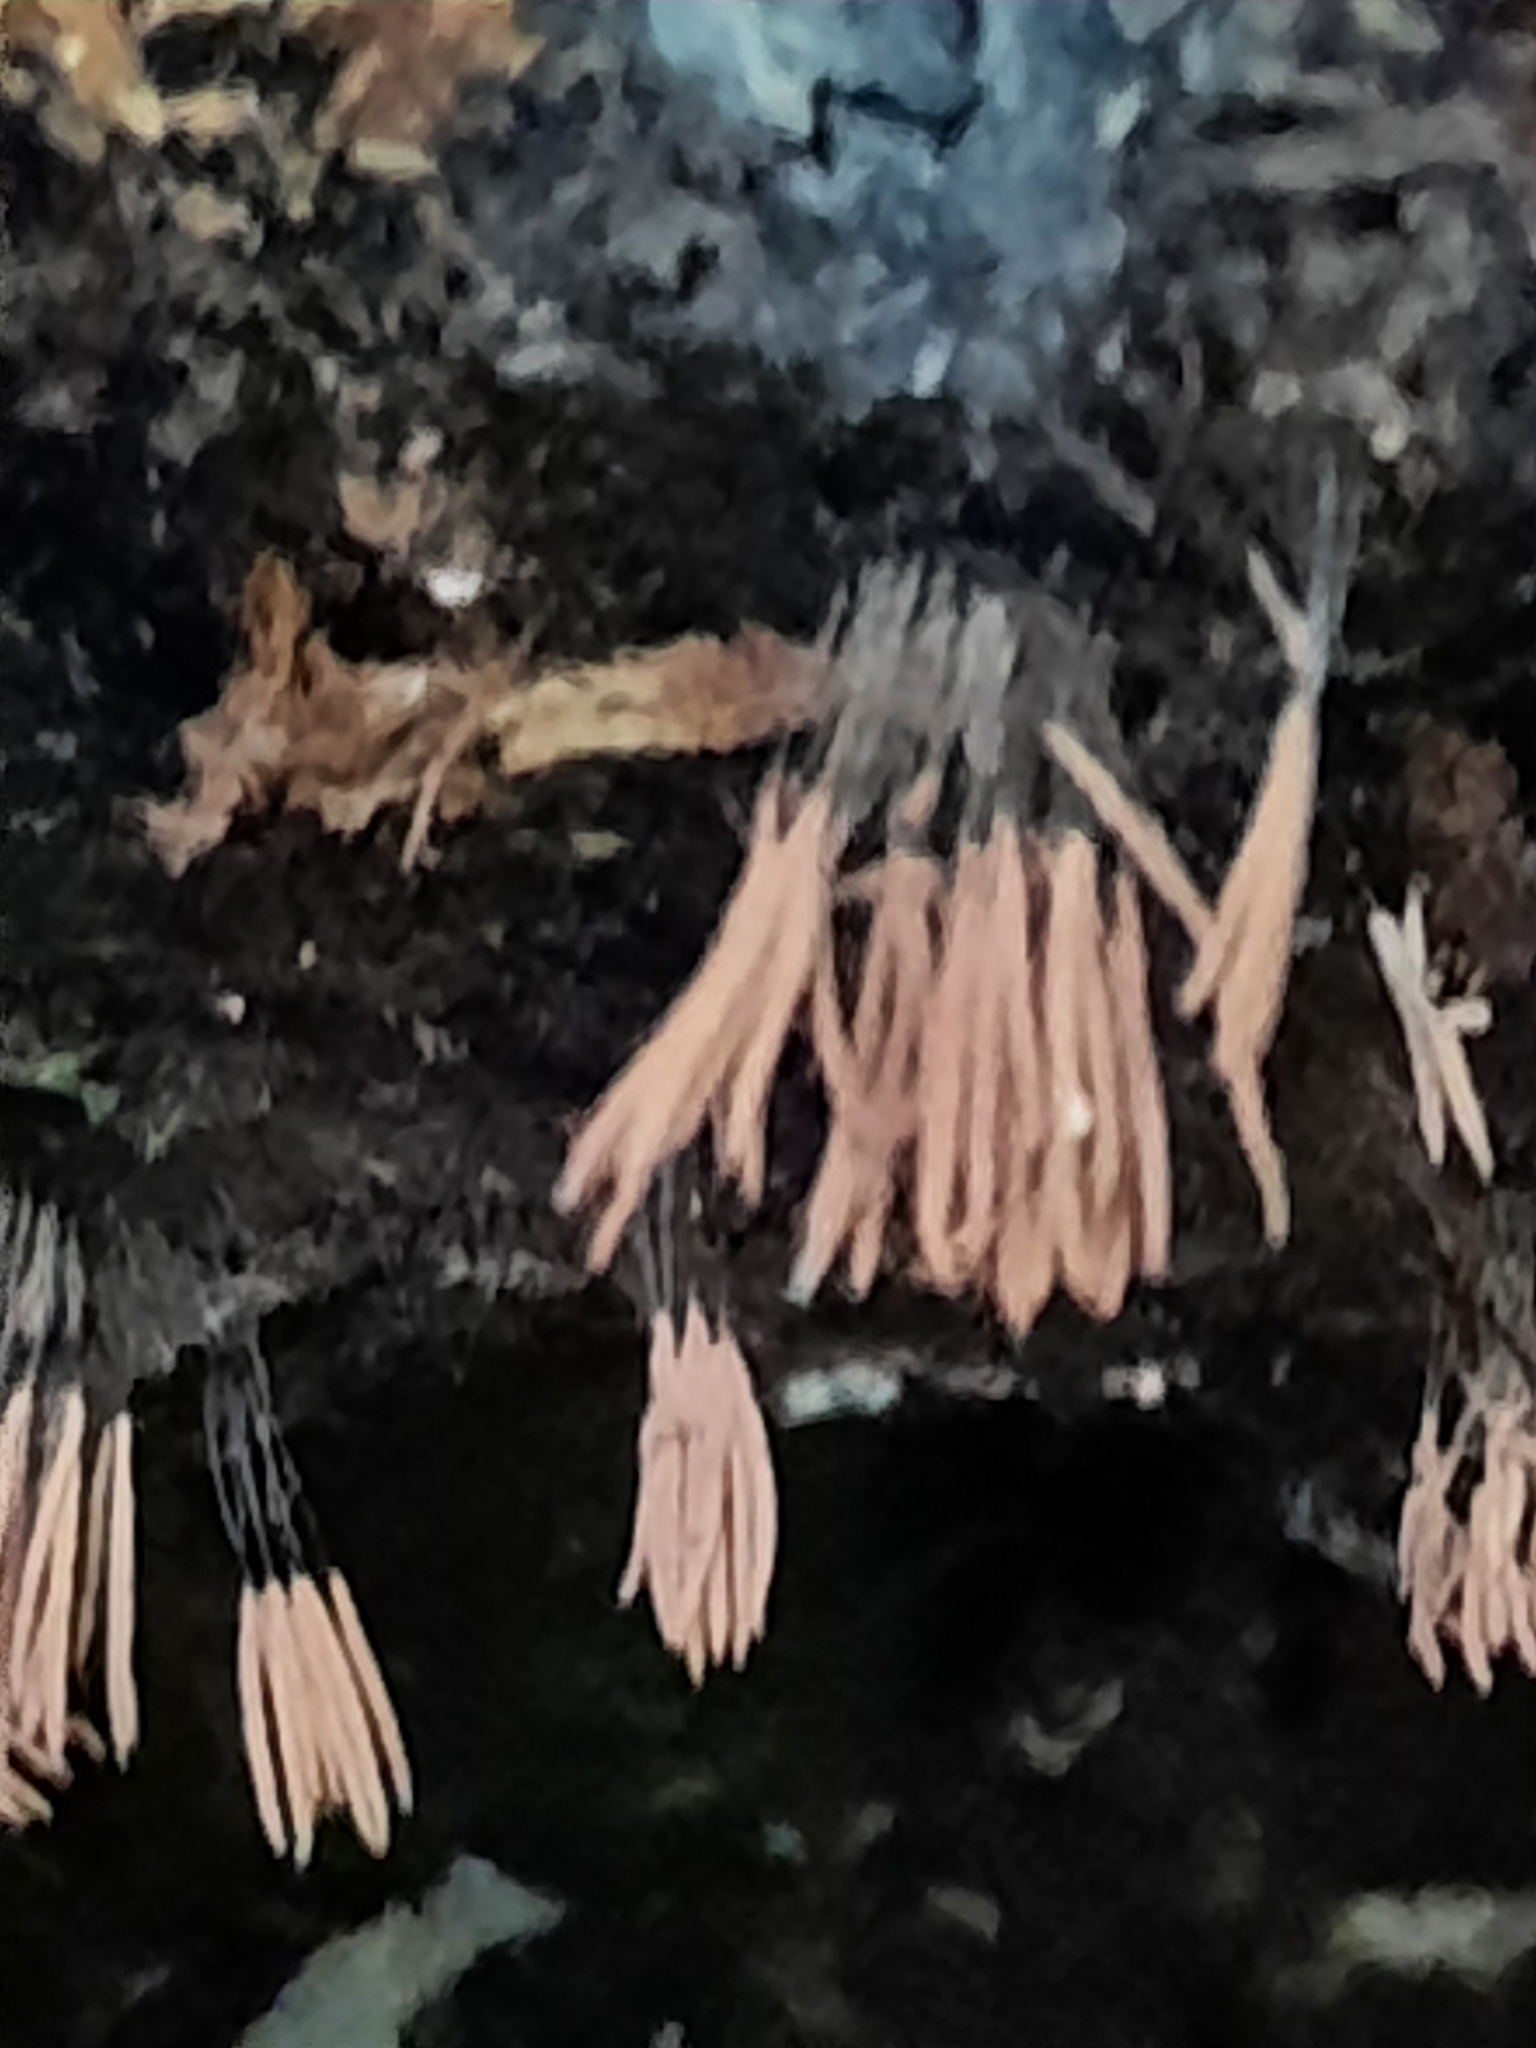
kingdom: Protozoa
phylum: Mycetozoa
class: Myxomycetes
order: Stemonitidales
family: Stemonitidaceae
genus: Stemonitis
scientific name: Stemonitis splendens
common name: Chocolate tube slime
